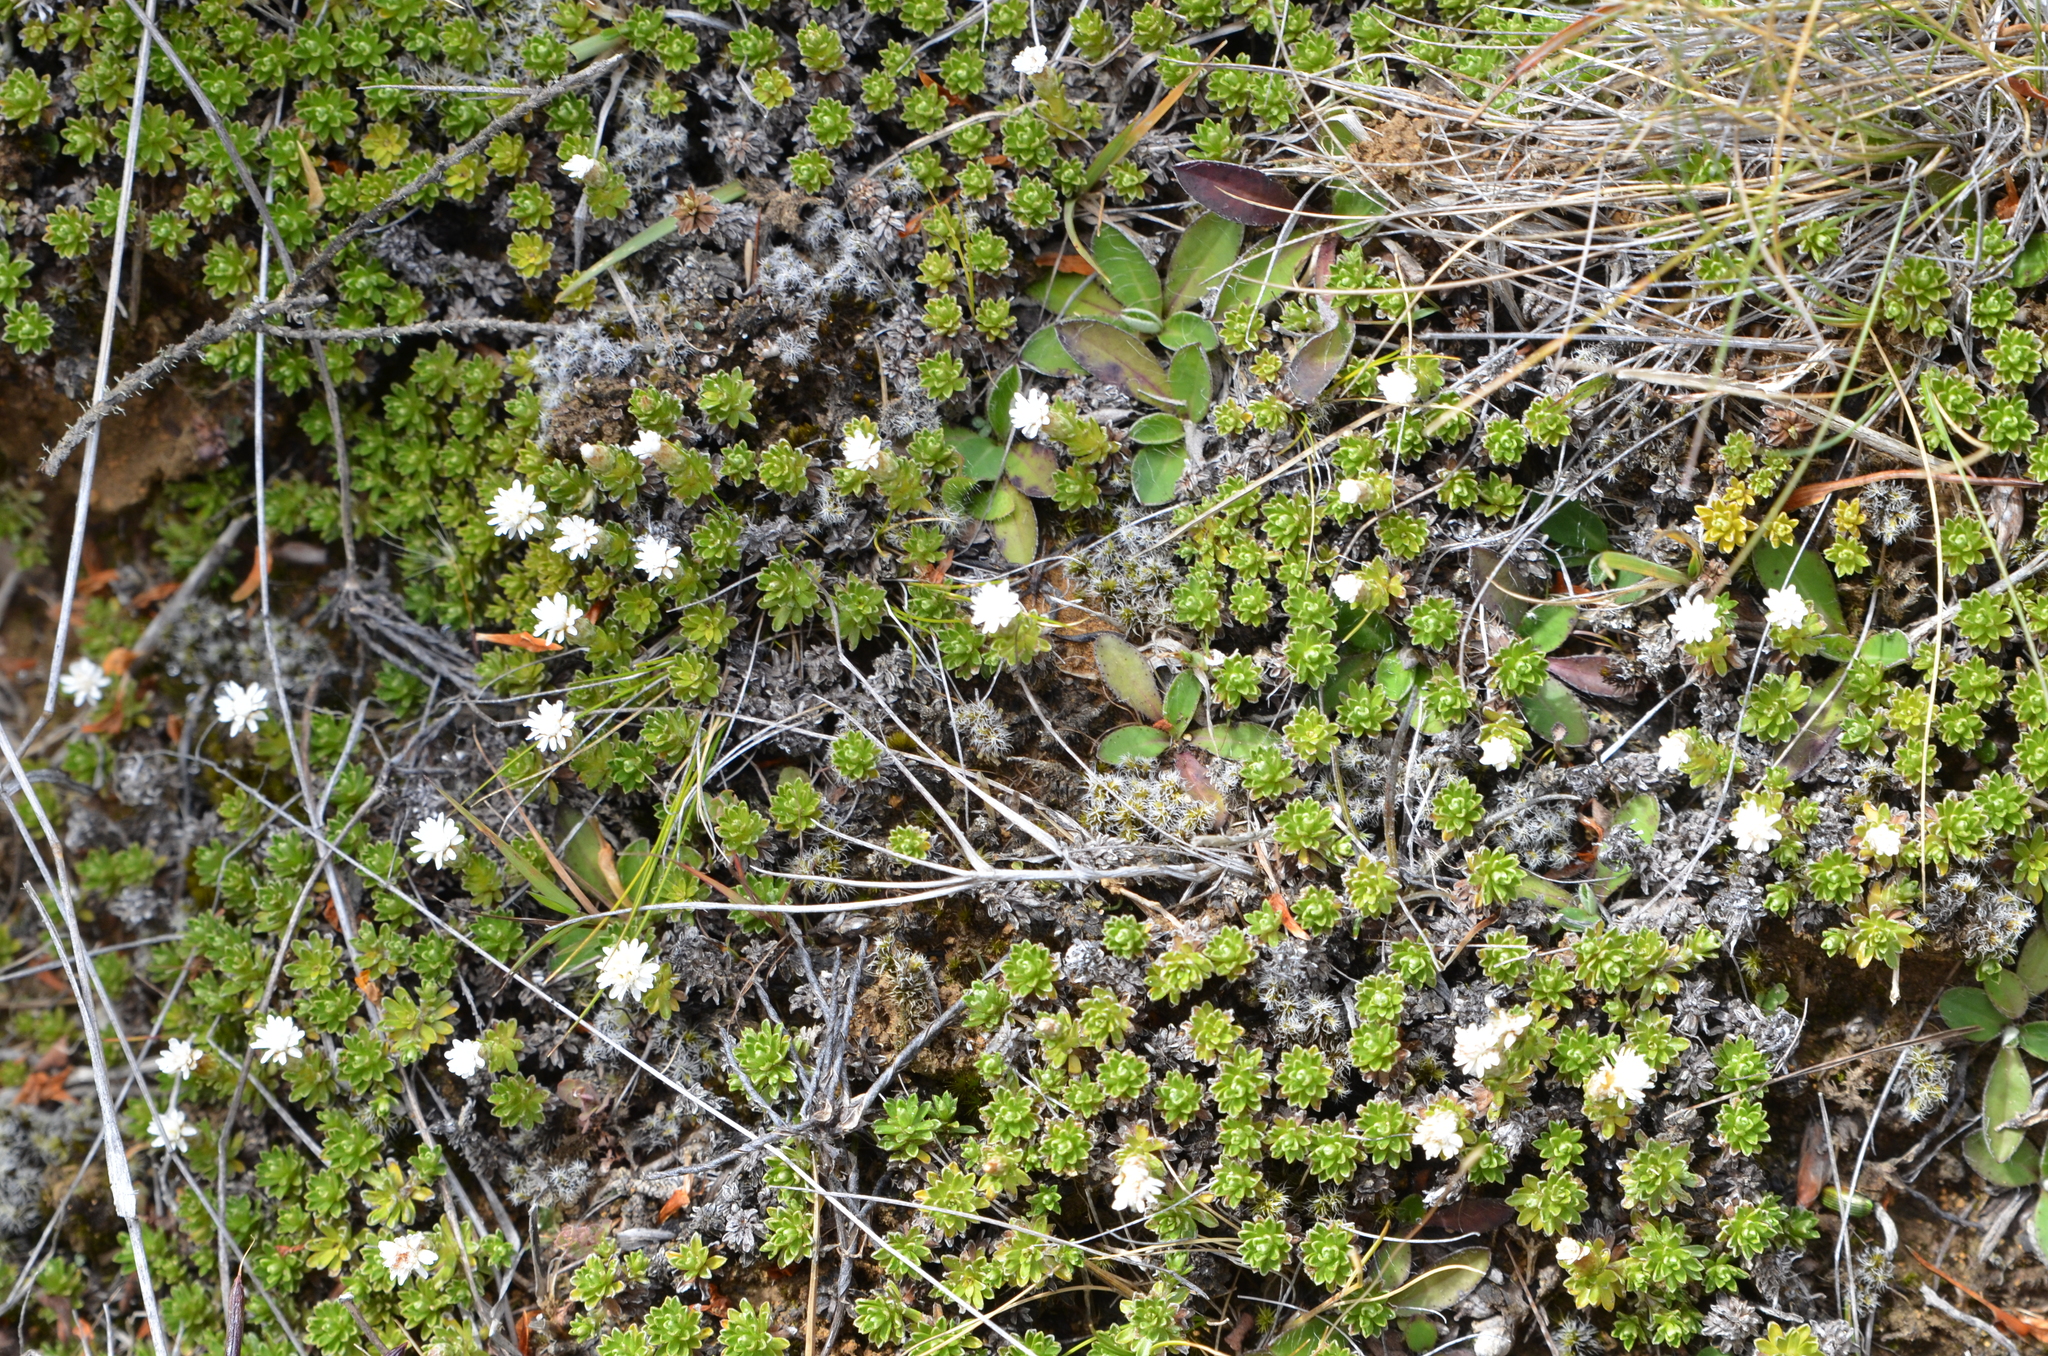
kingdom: Plantae
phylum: Tracheophyta
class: Magnoliopsida
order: Asterales
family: Asteraceae
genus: Raoulia
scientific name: Raoulia subsericea
